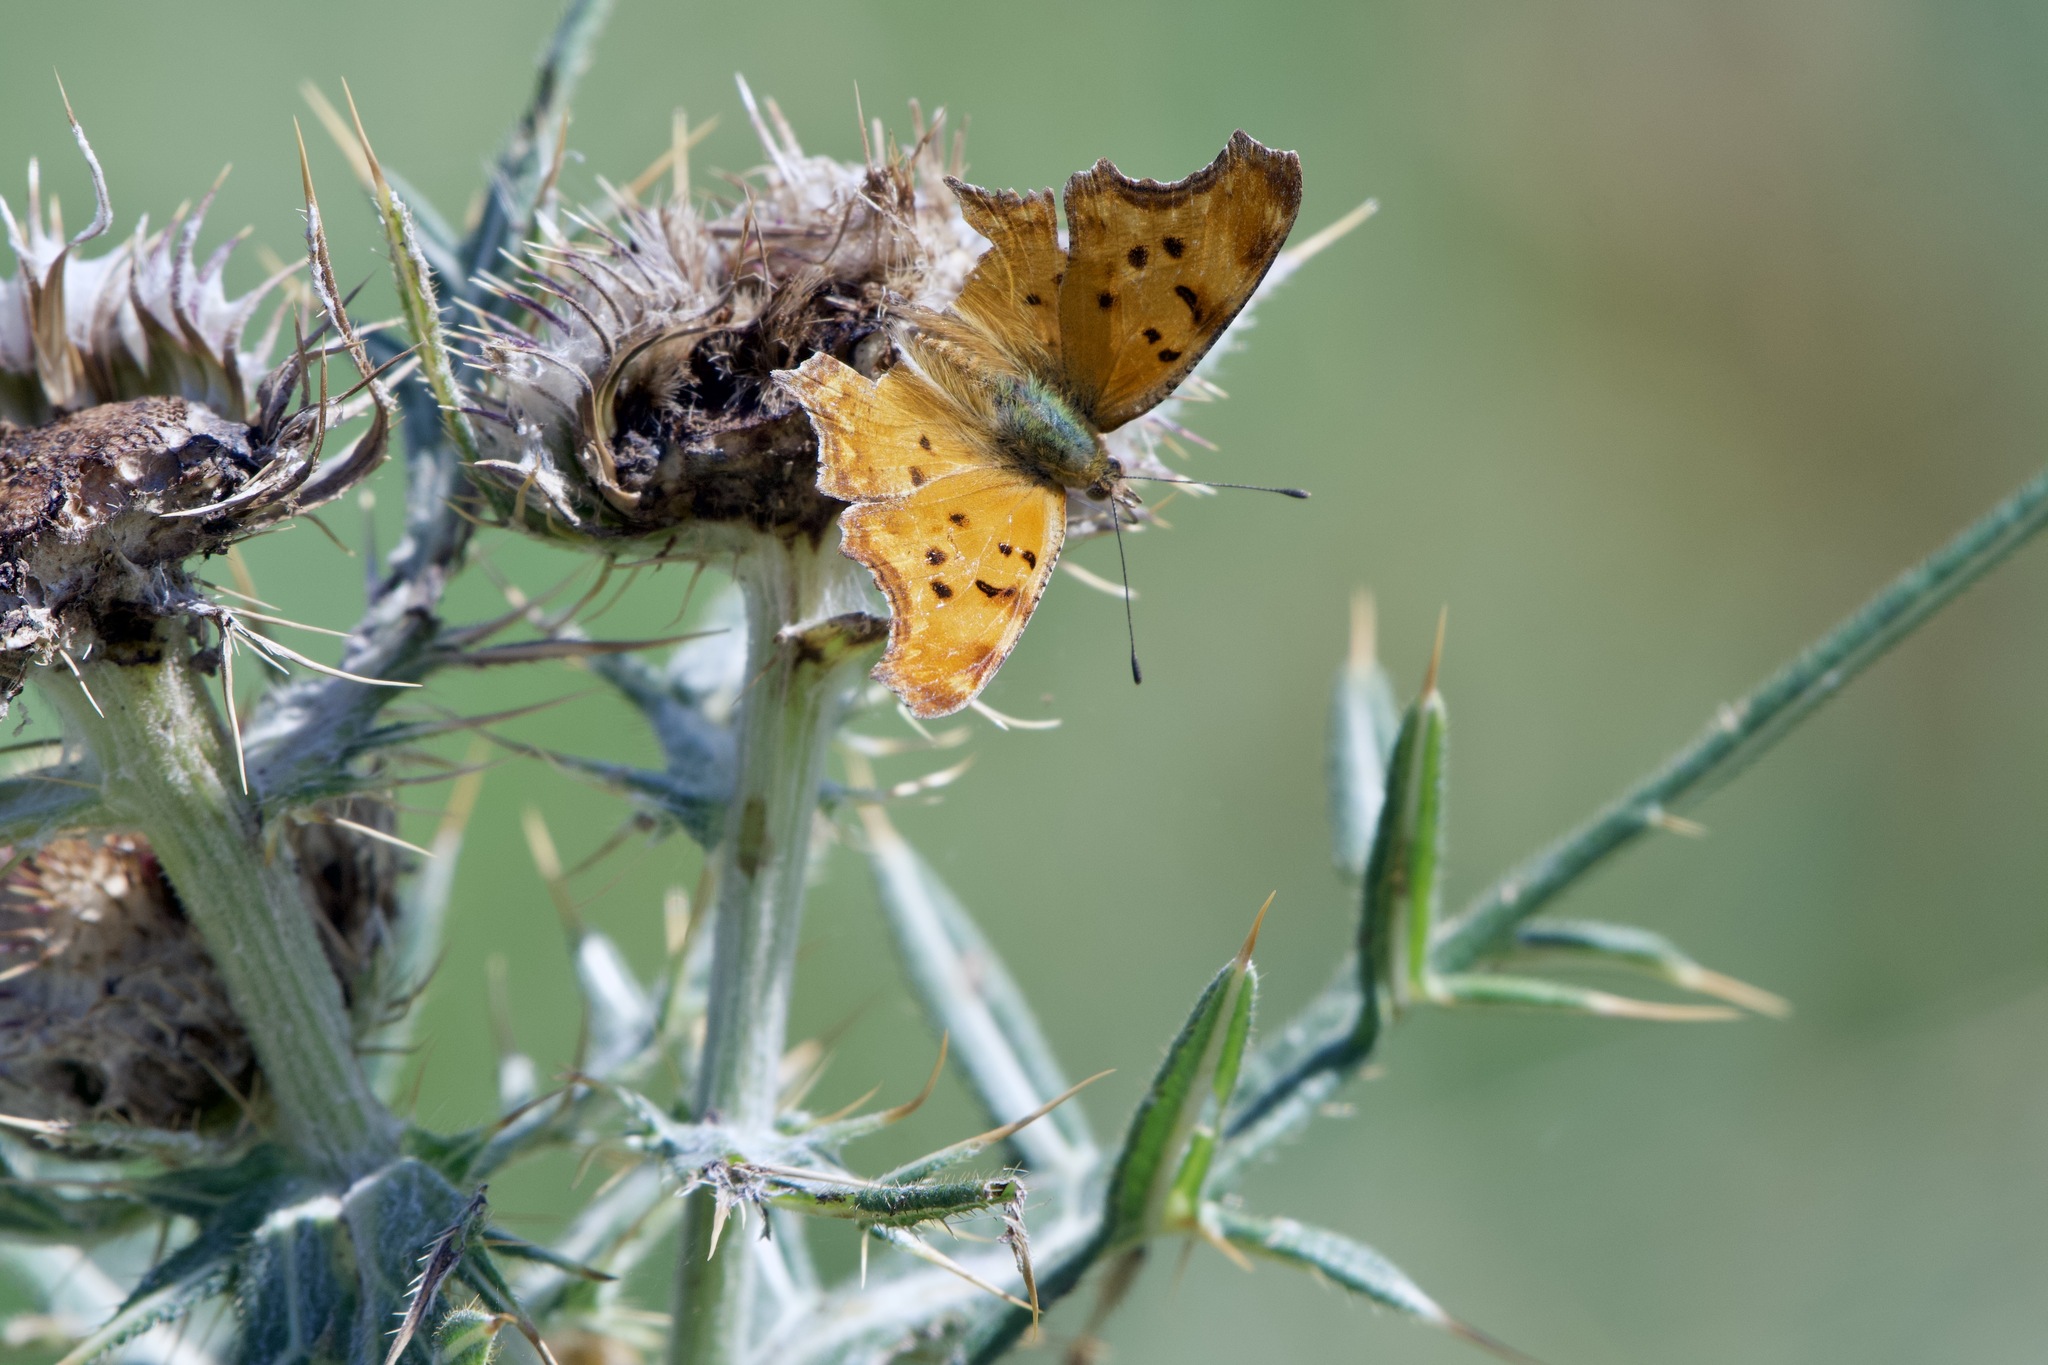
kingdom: Animalia
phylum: Arthropoda
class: Insecta
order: Lepidoptera
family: Nymphalidae
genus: Polygonia
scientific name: Polygonia egea
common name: Southern comma
